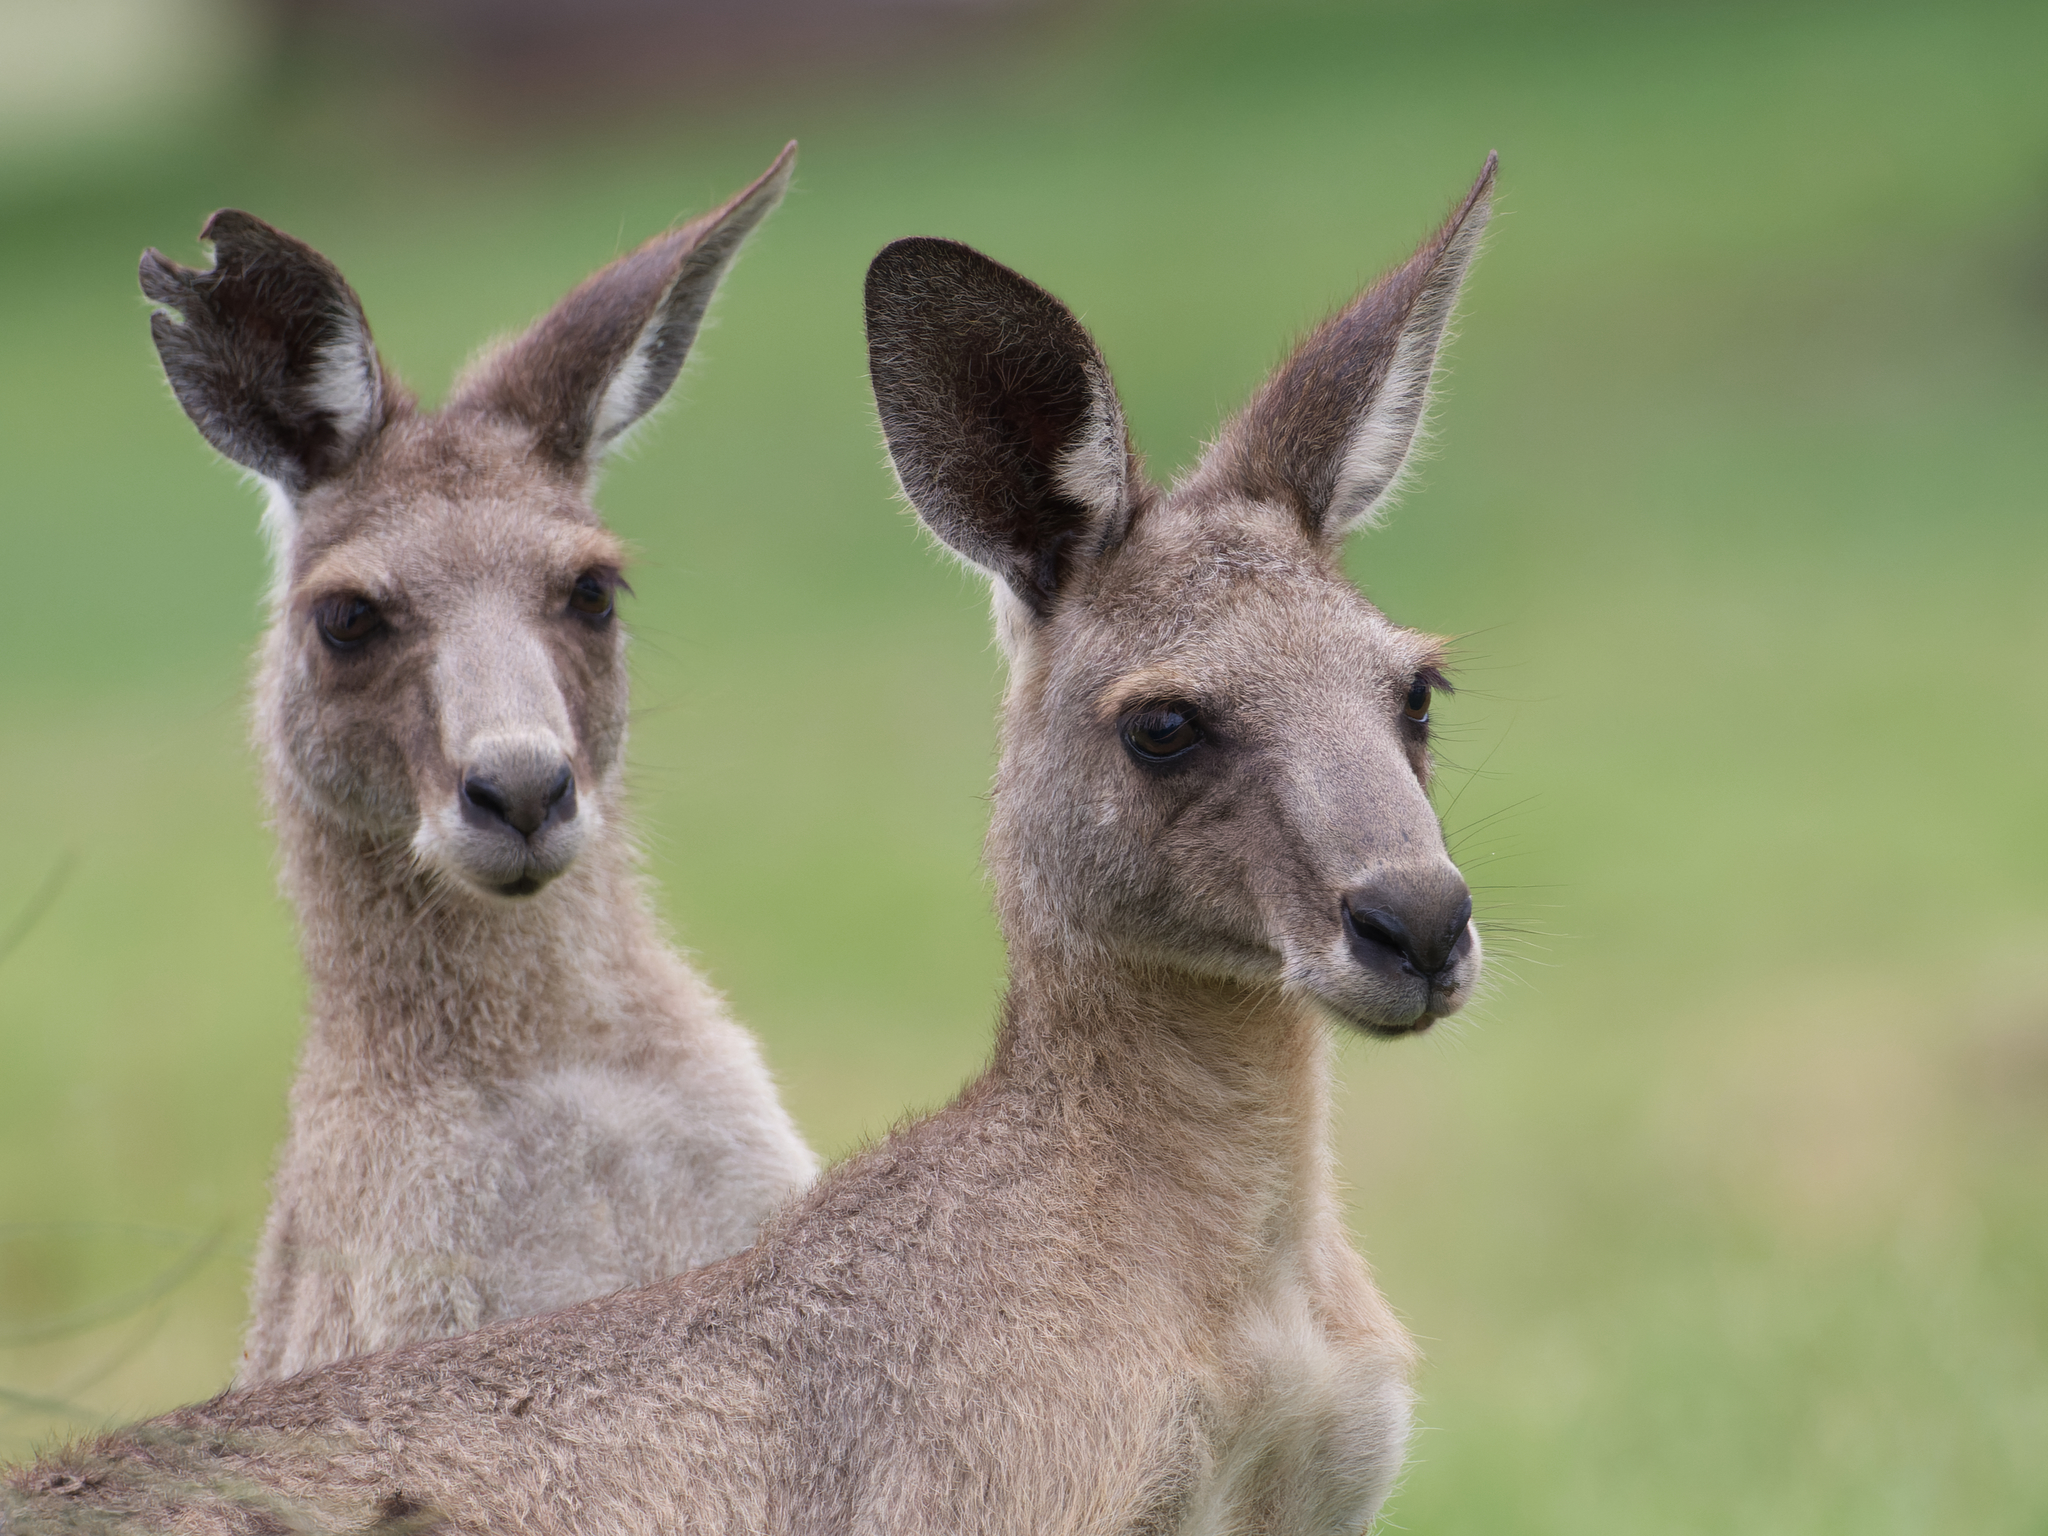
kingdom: Animalia
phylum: Chordata
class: Mammalia
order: Diprotodontia
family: Macropodidae
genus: Macropus
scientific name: Macropus giganteus
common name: Eastern grey kangaroo
